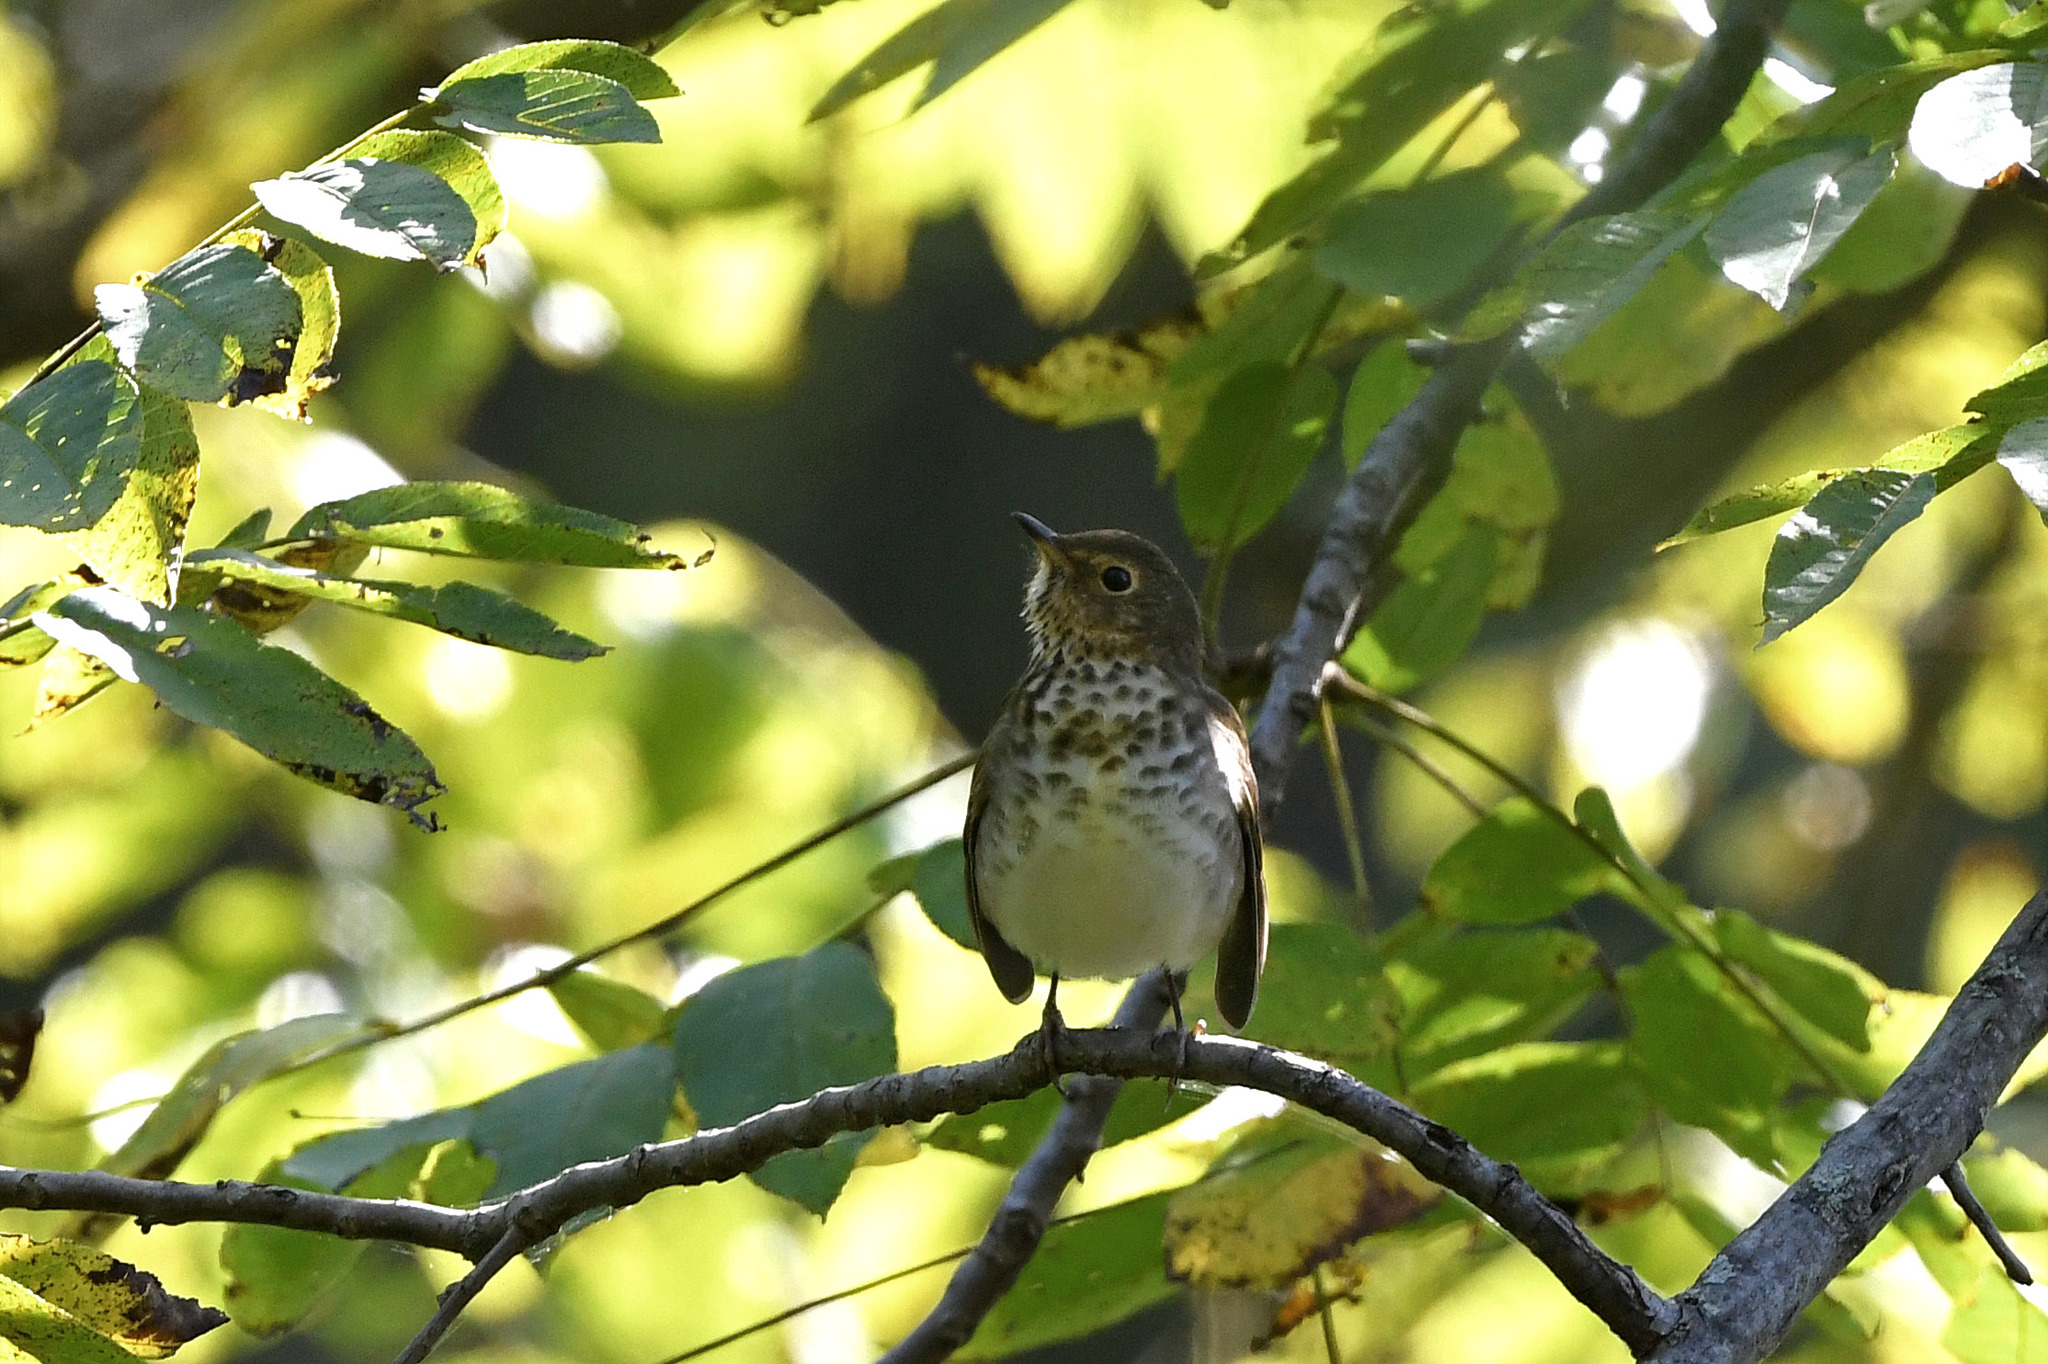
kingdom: Animalia
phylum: Chordata
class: Aves
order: Passeriformes
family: Turdidae
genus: Catharus
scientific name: Catharus ustulatus
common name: Swainson's thrush
